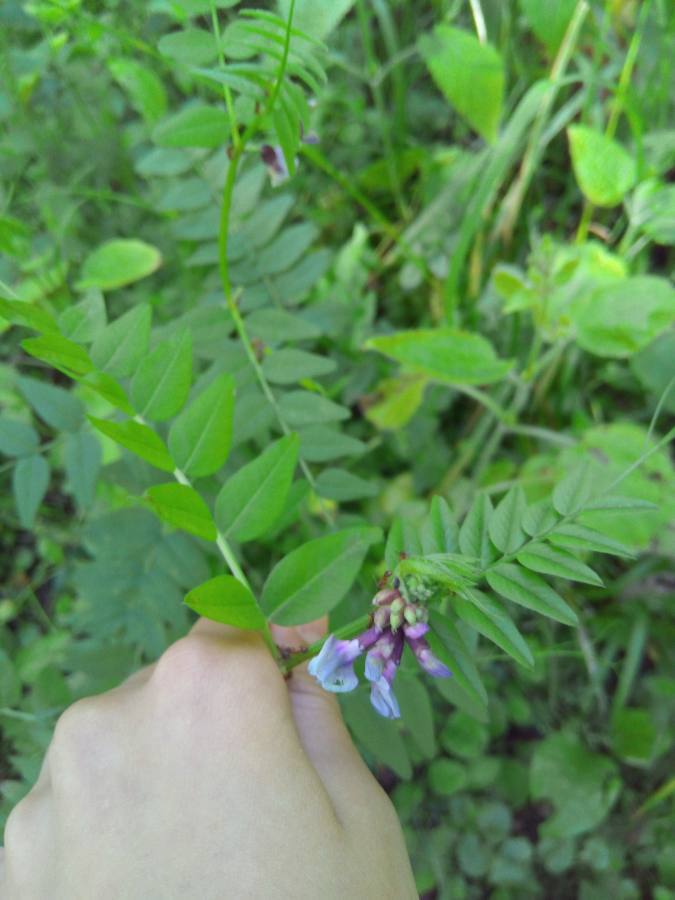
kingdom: Plantae
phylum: Tracheophyta
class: Magnoliopsida
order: Fabales
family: Fabaceae
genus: Vicia
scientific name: Vicia sepium
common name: Bush vetch
